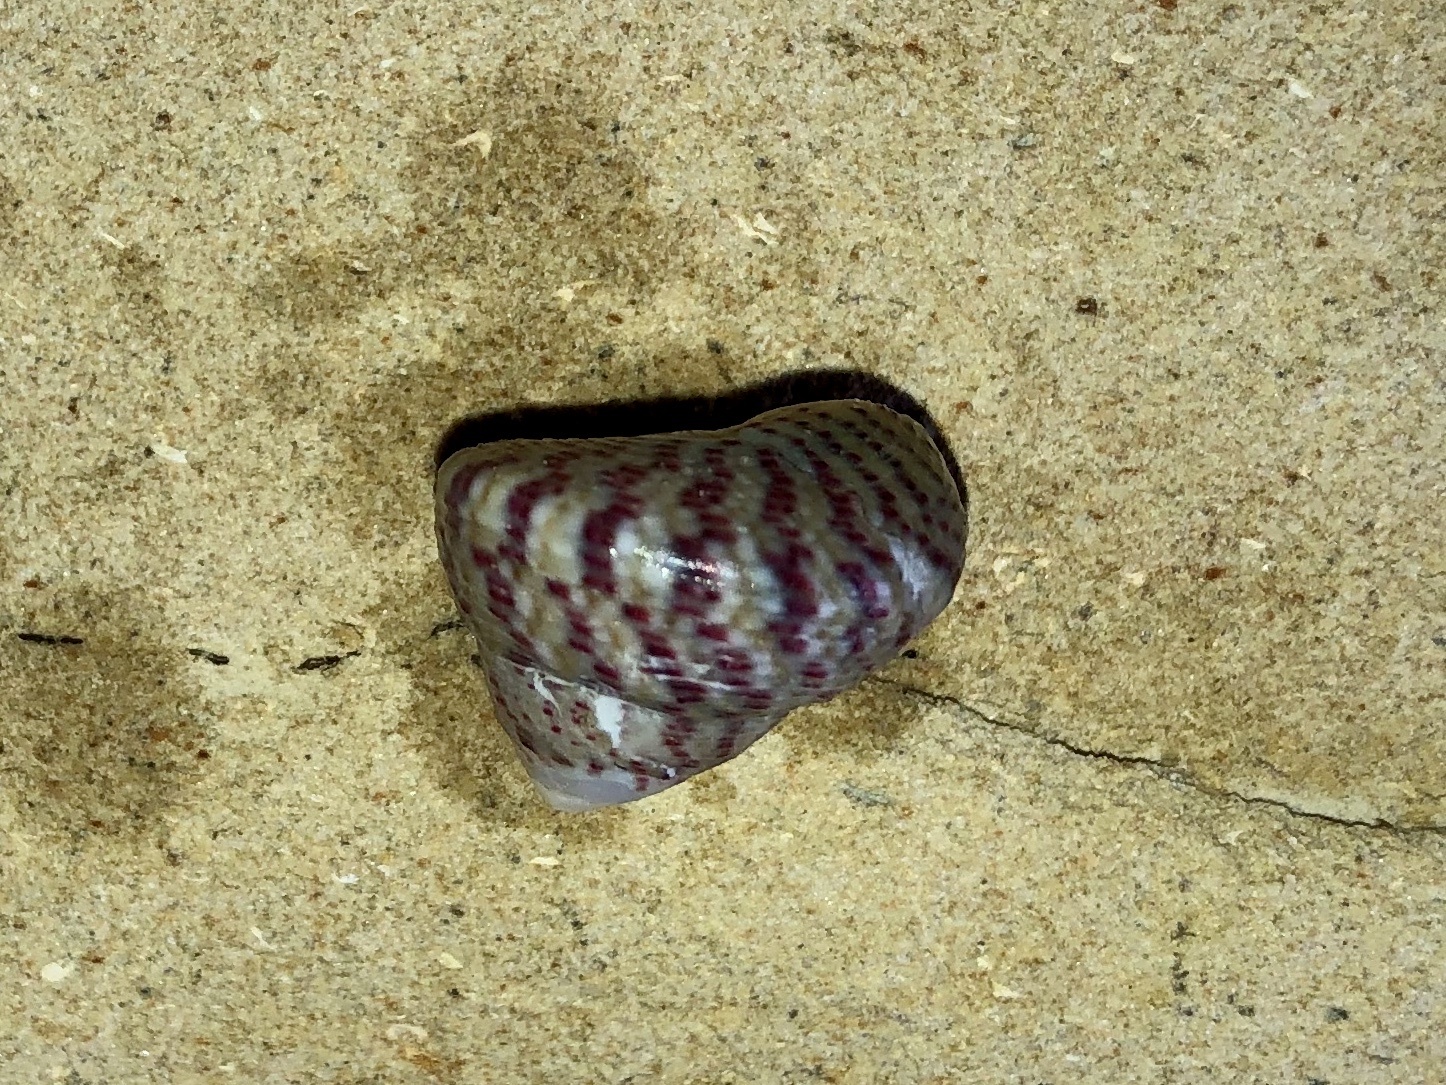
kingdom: Animalia
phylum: Mollusca
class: Gastropoda
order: Trochida
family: Trochidae
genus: Steromphala
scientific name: Steromphala divaricata
